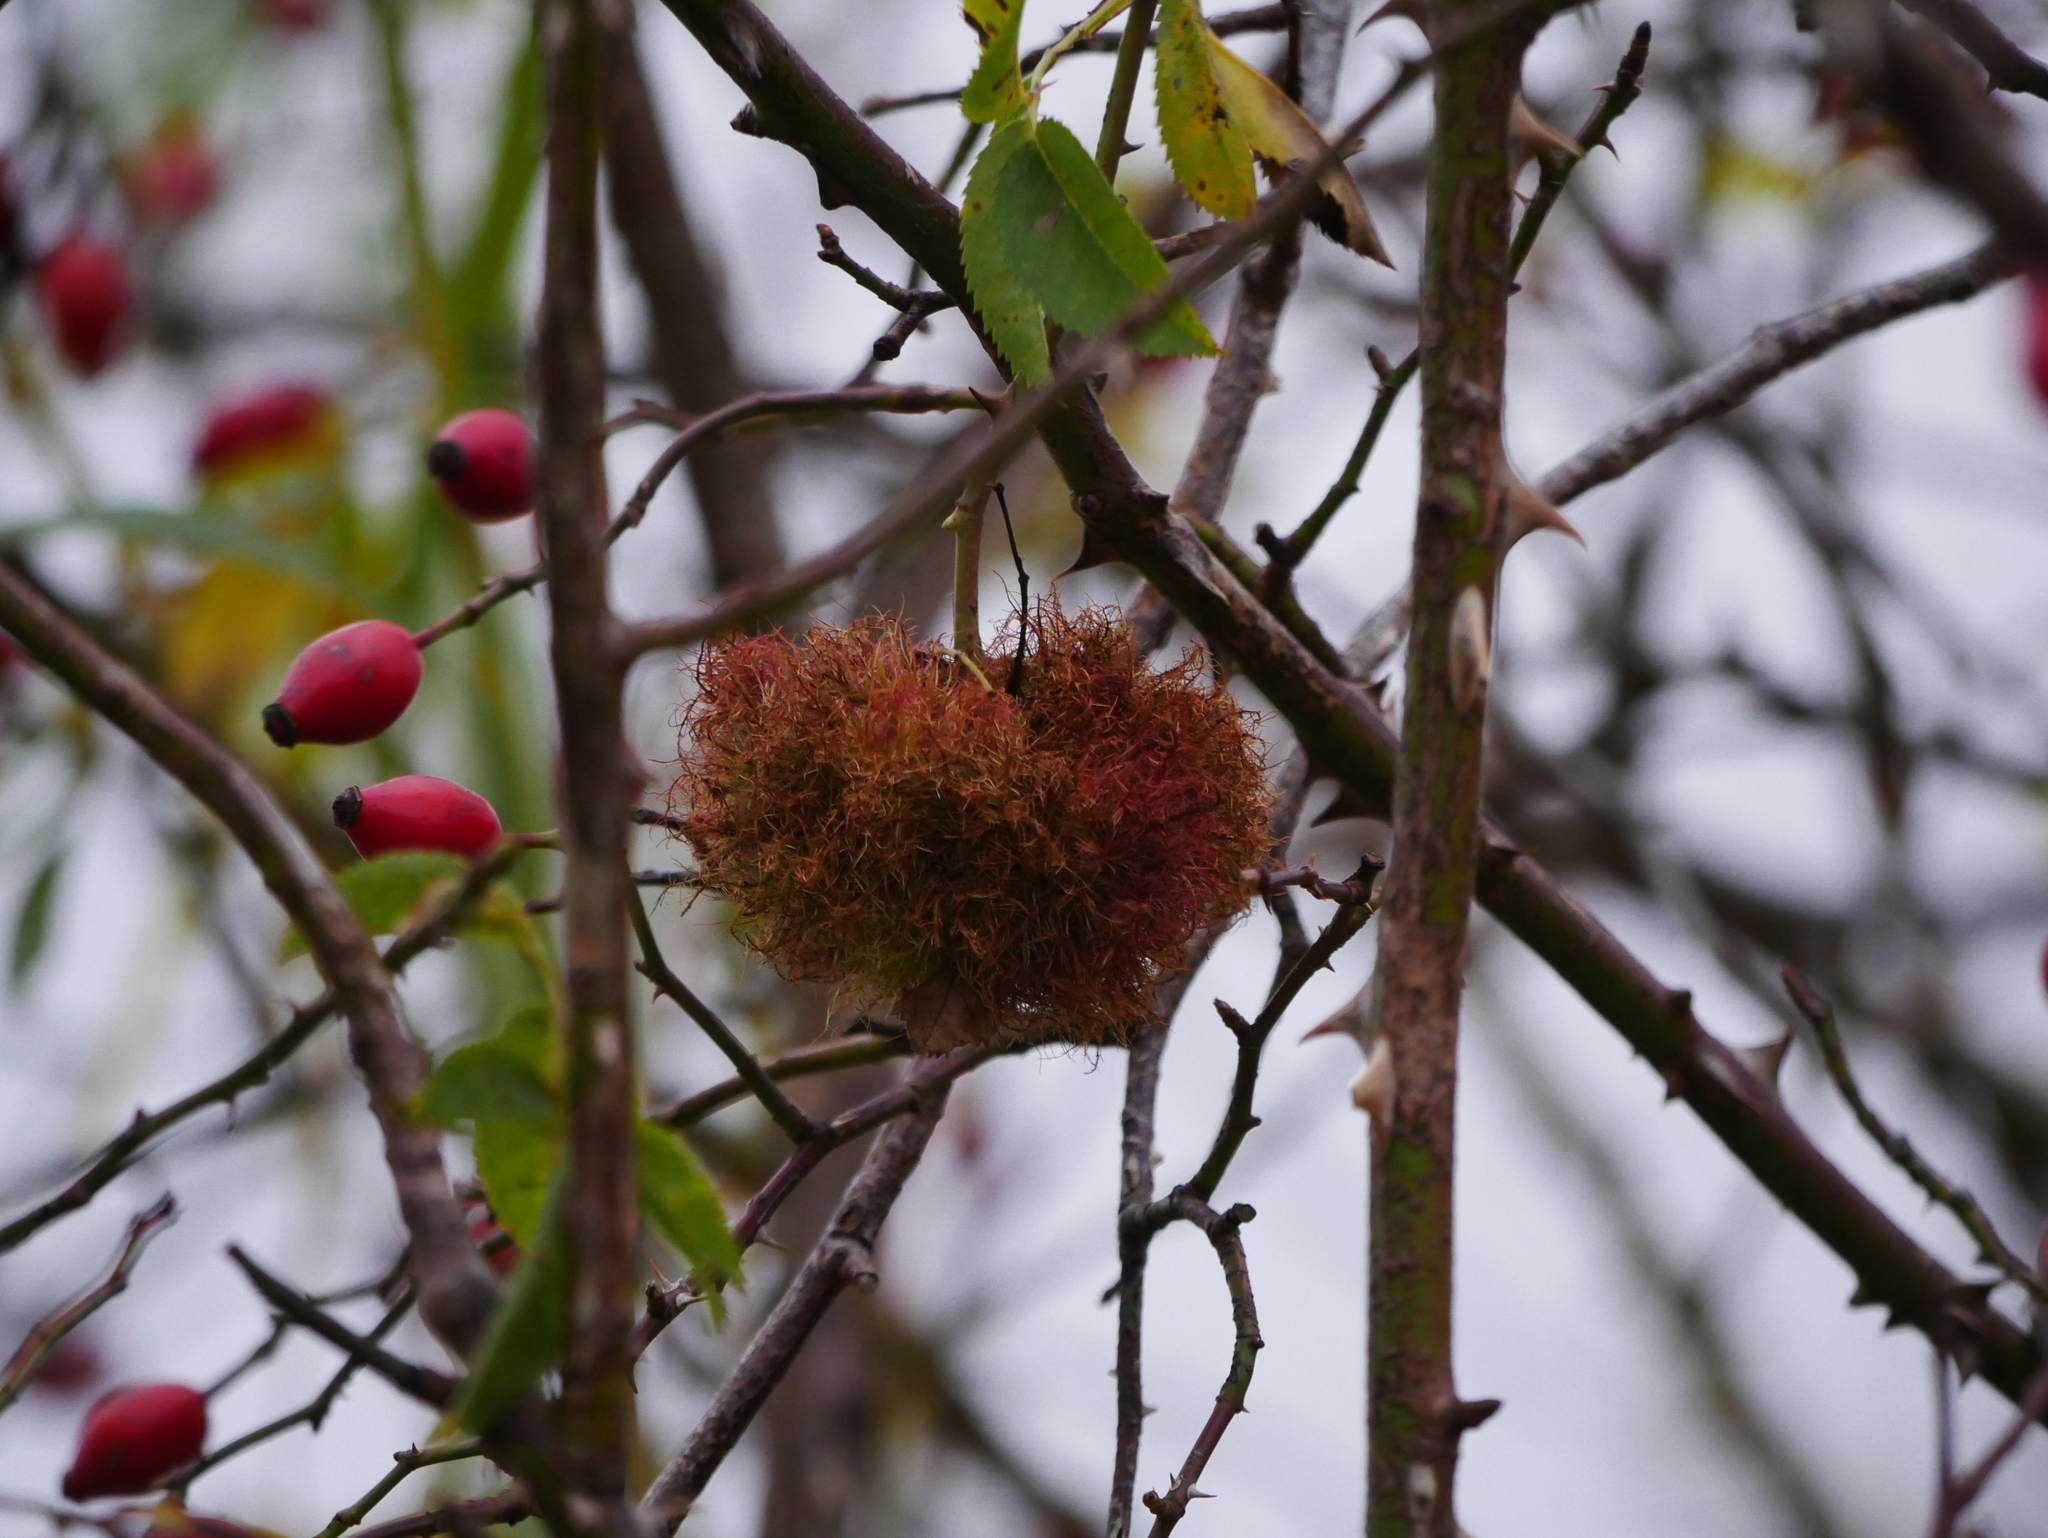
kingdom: Animalia
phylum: Arthropoda
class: Insecta
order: Hymenoptera
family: Cynipidae
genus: Diplolepis
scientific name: Diplolepis rosae
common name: Bedeguar gall
